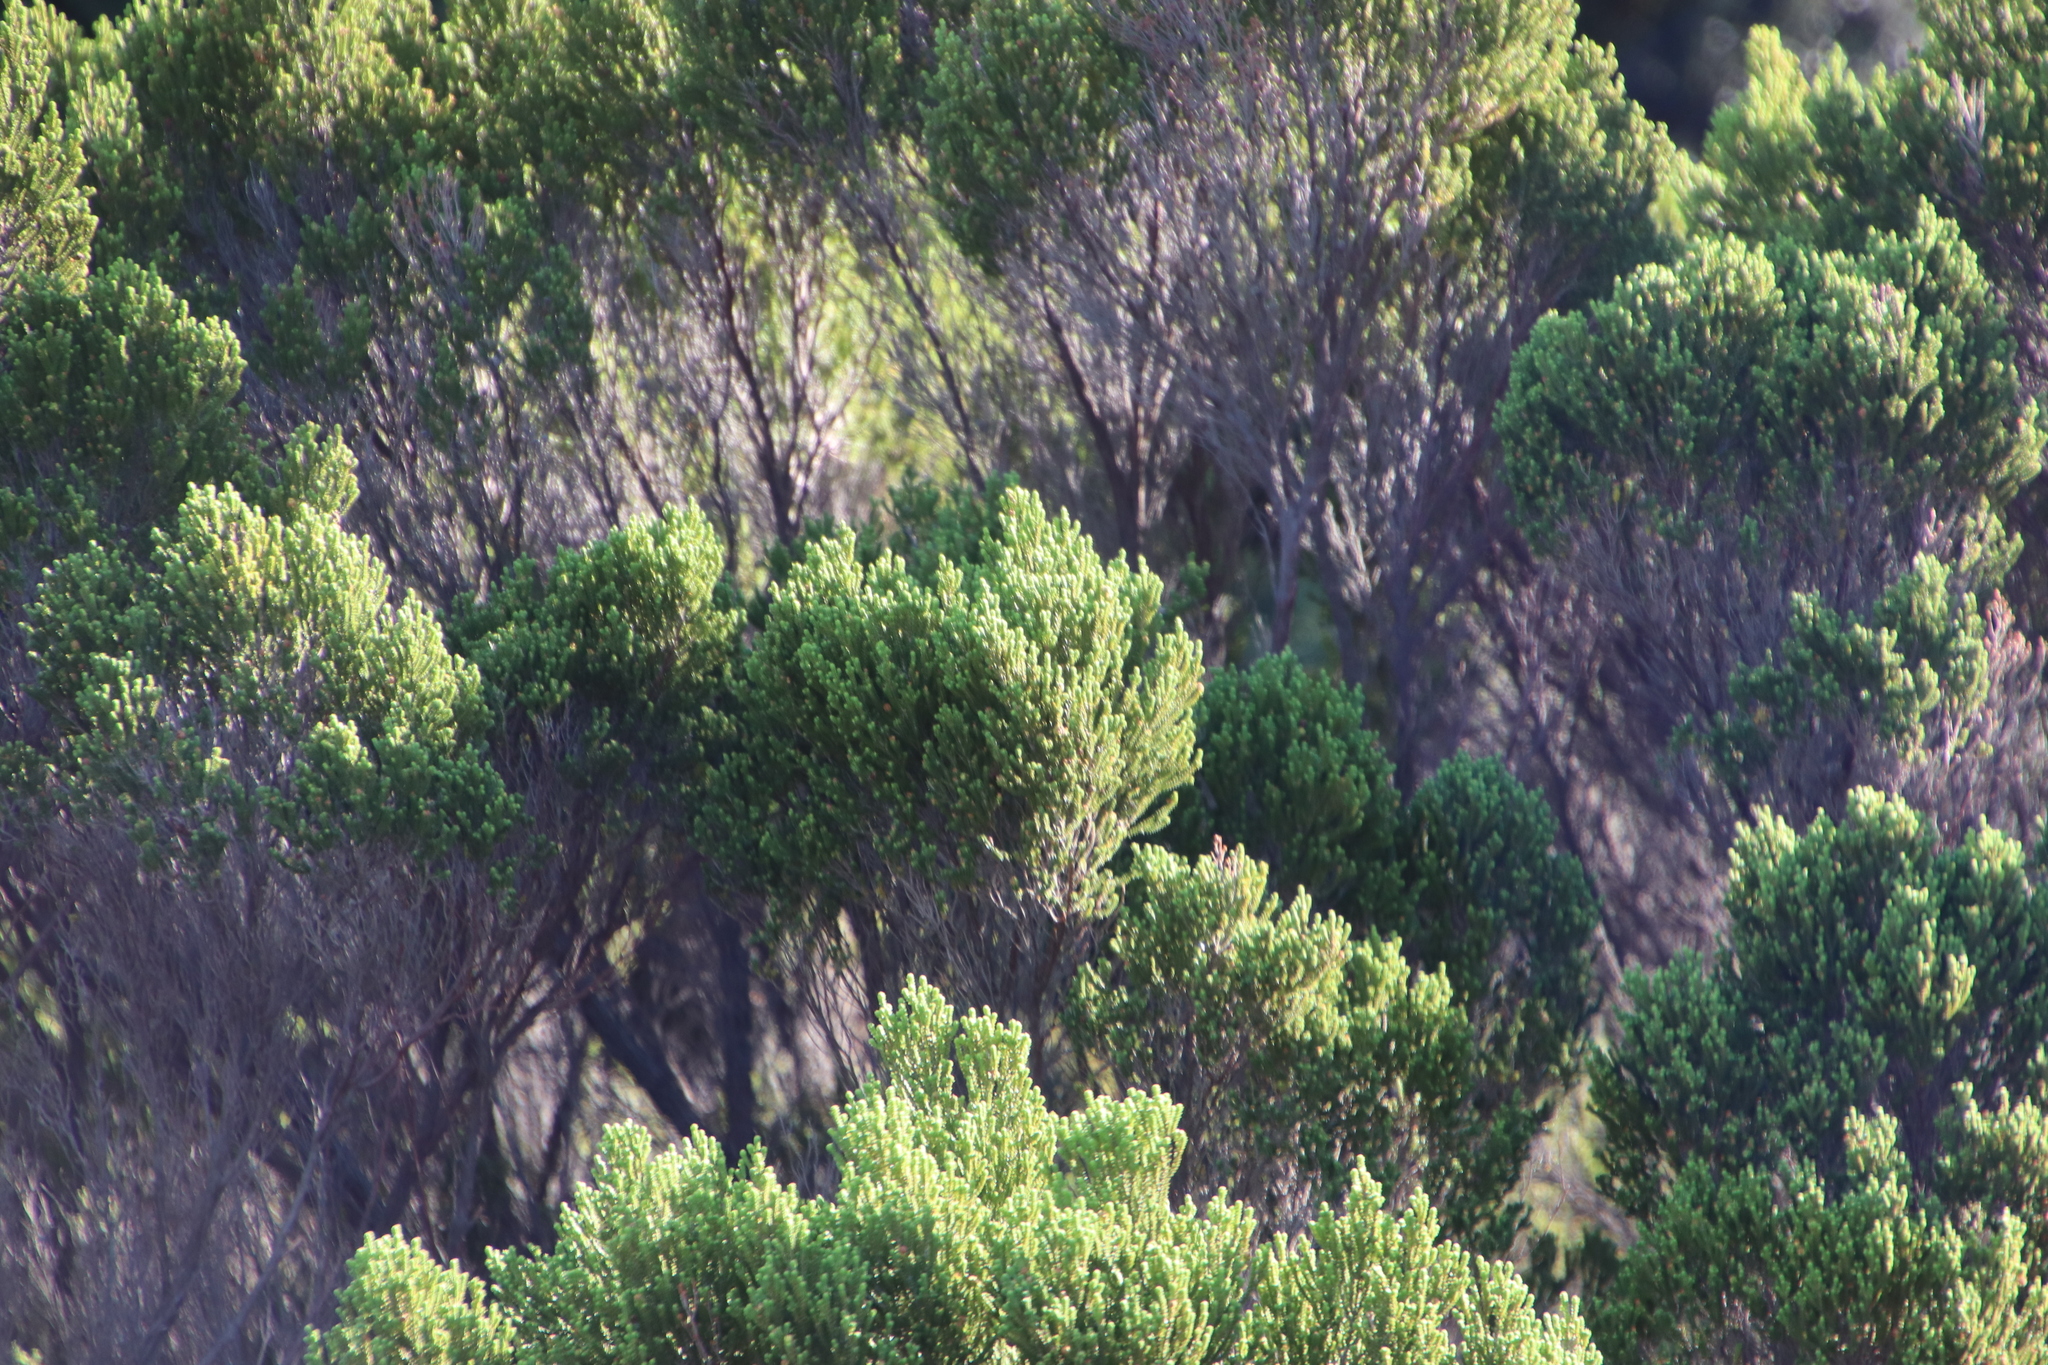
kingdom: Plantae
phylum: Tracheophyta
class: Magnoliopsida
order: Ericales
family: Ericaceae
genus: Erica
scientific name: Erica tristis
